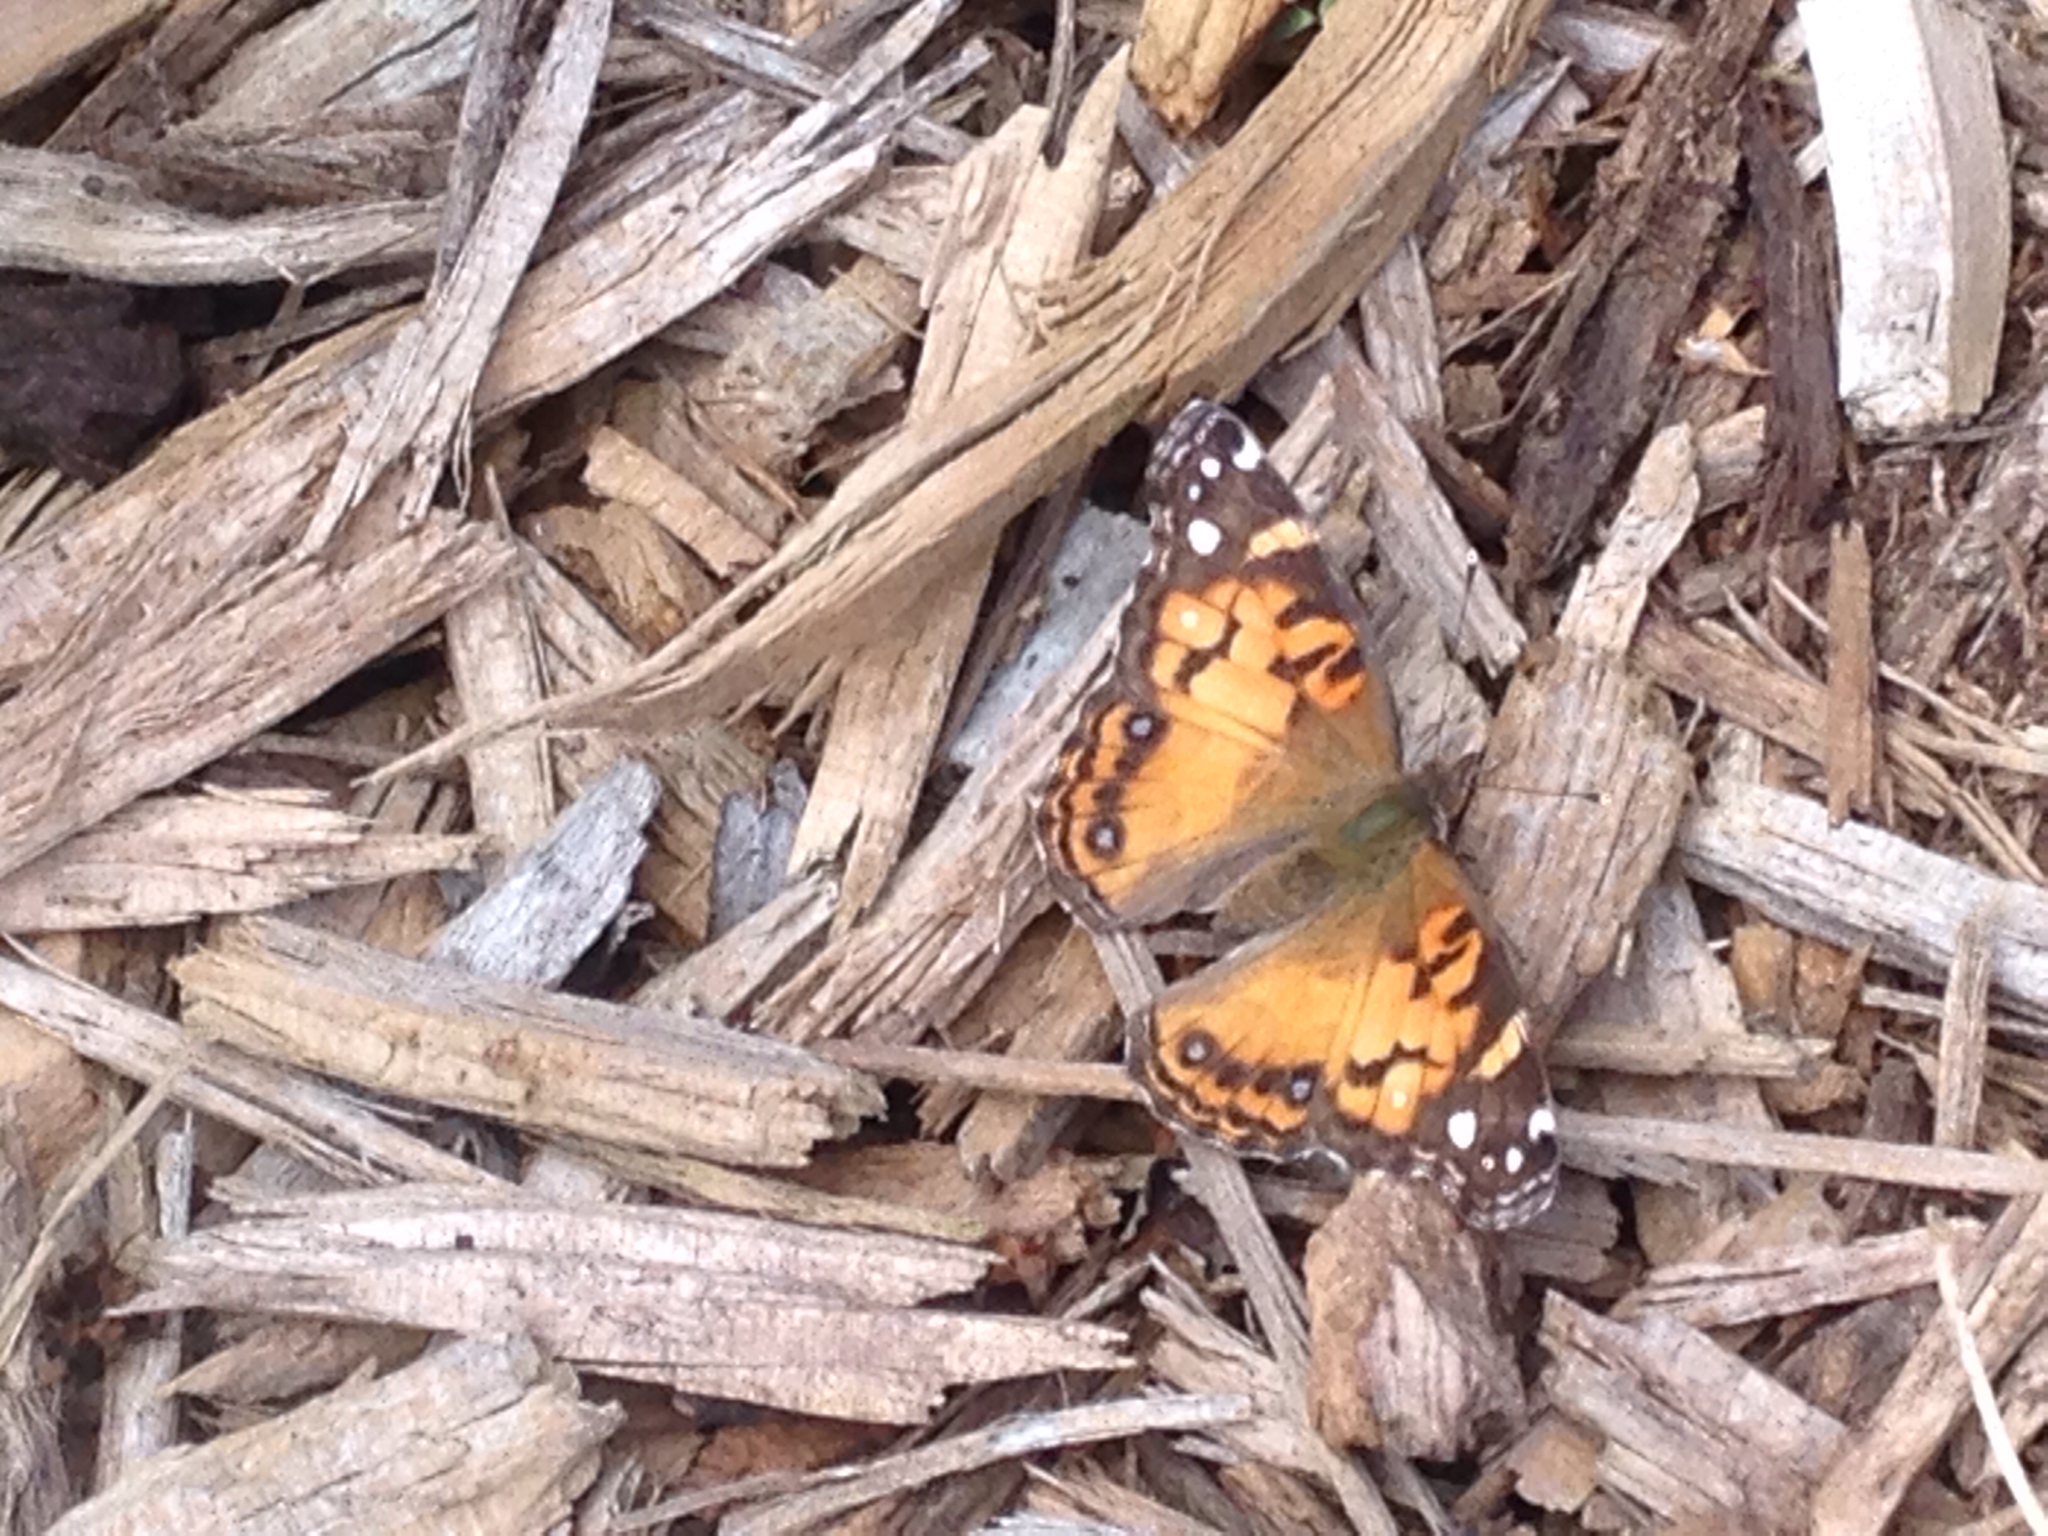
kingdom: Animalia
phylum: Arthropoda
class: Insecta
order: Lepidoptera
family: Nymphalidae
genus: Vanessa
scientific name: Vanessa virginiensis
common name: American lady
